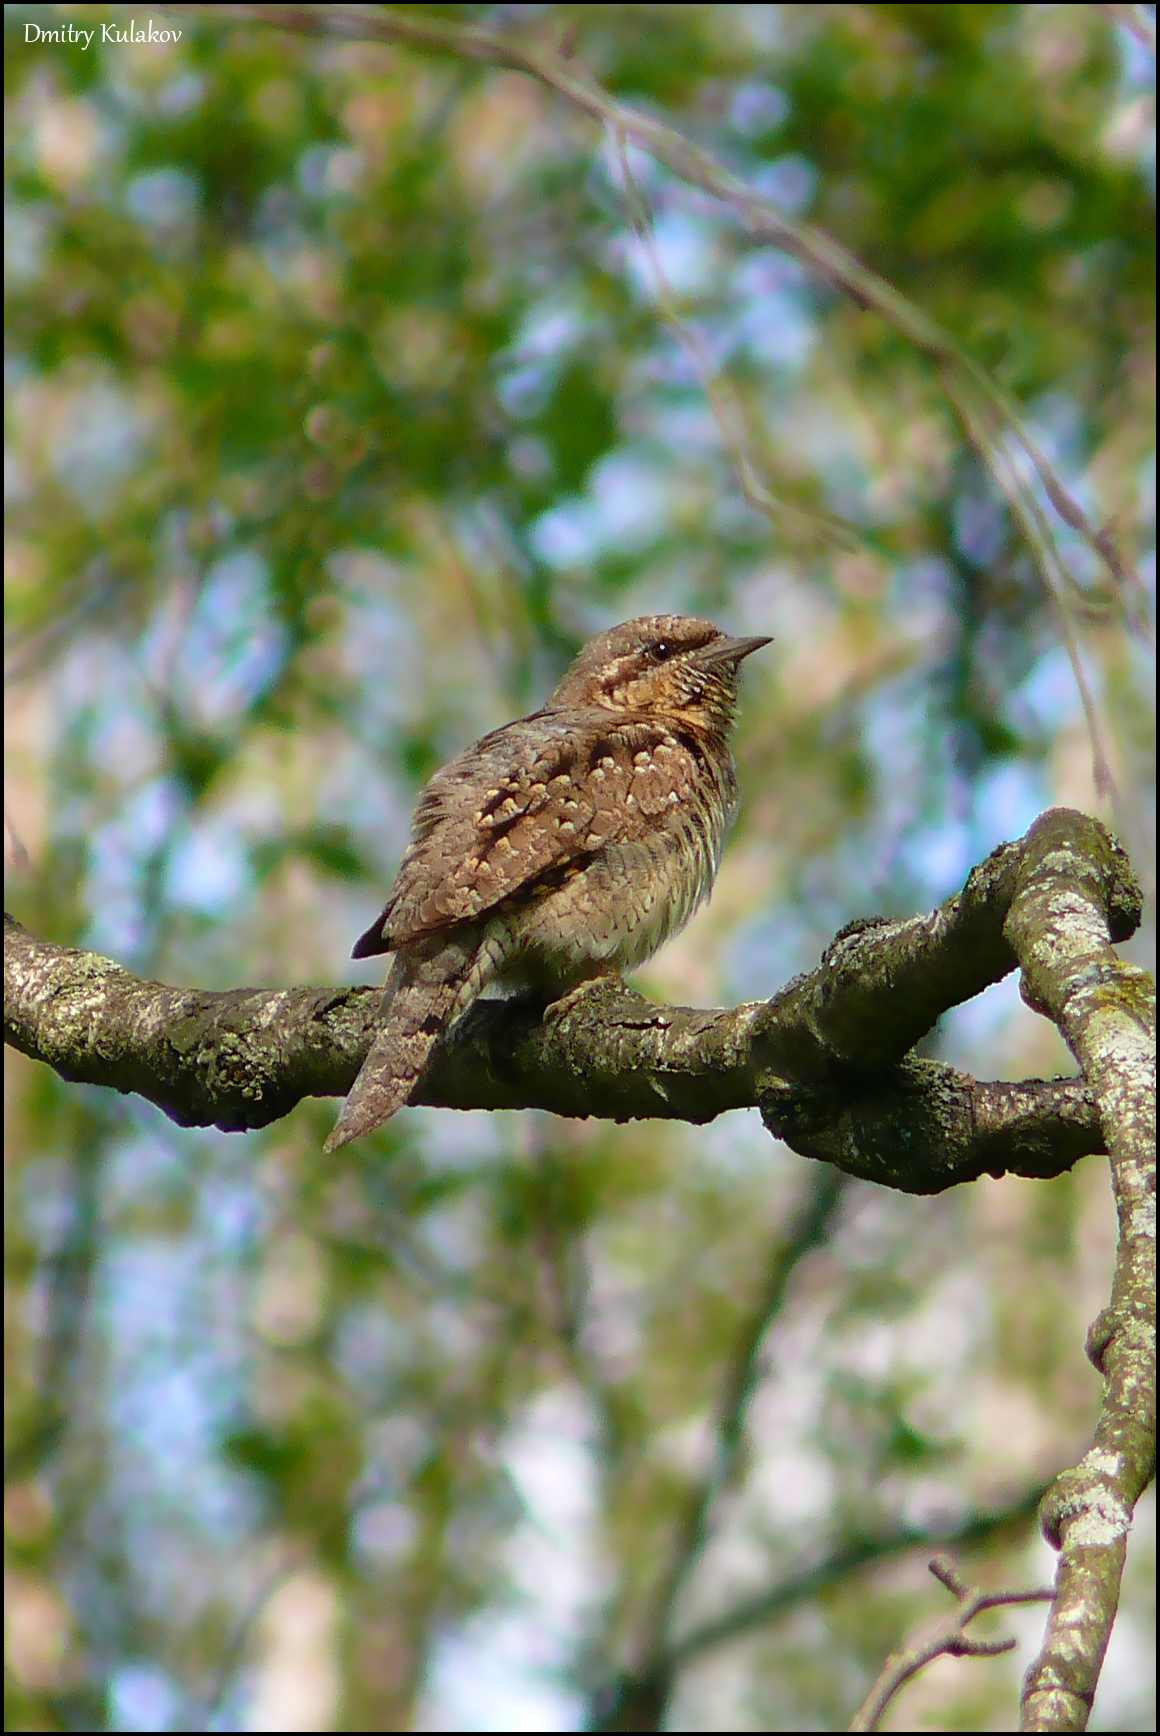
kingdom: Animalia
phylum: Chordata
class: Aves
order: Piciformes
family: Picidae
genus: Jynx
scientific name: Jynx torquilla
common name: Eurasian wryneck
